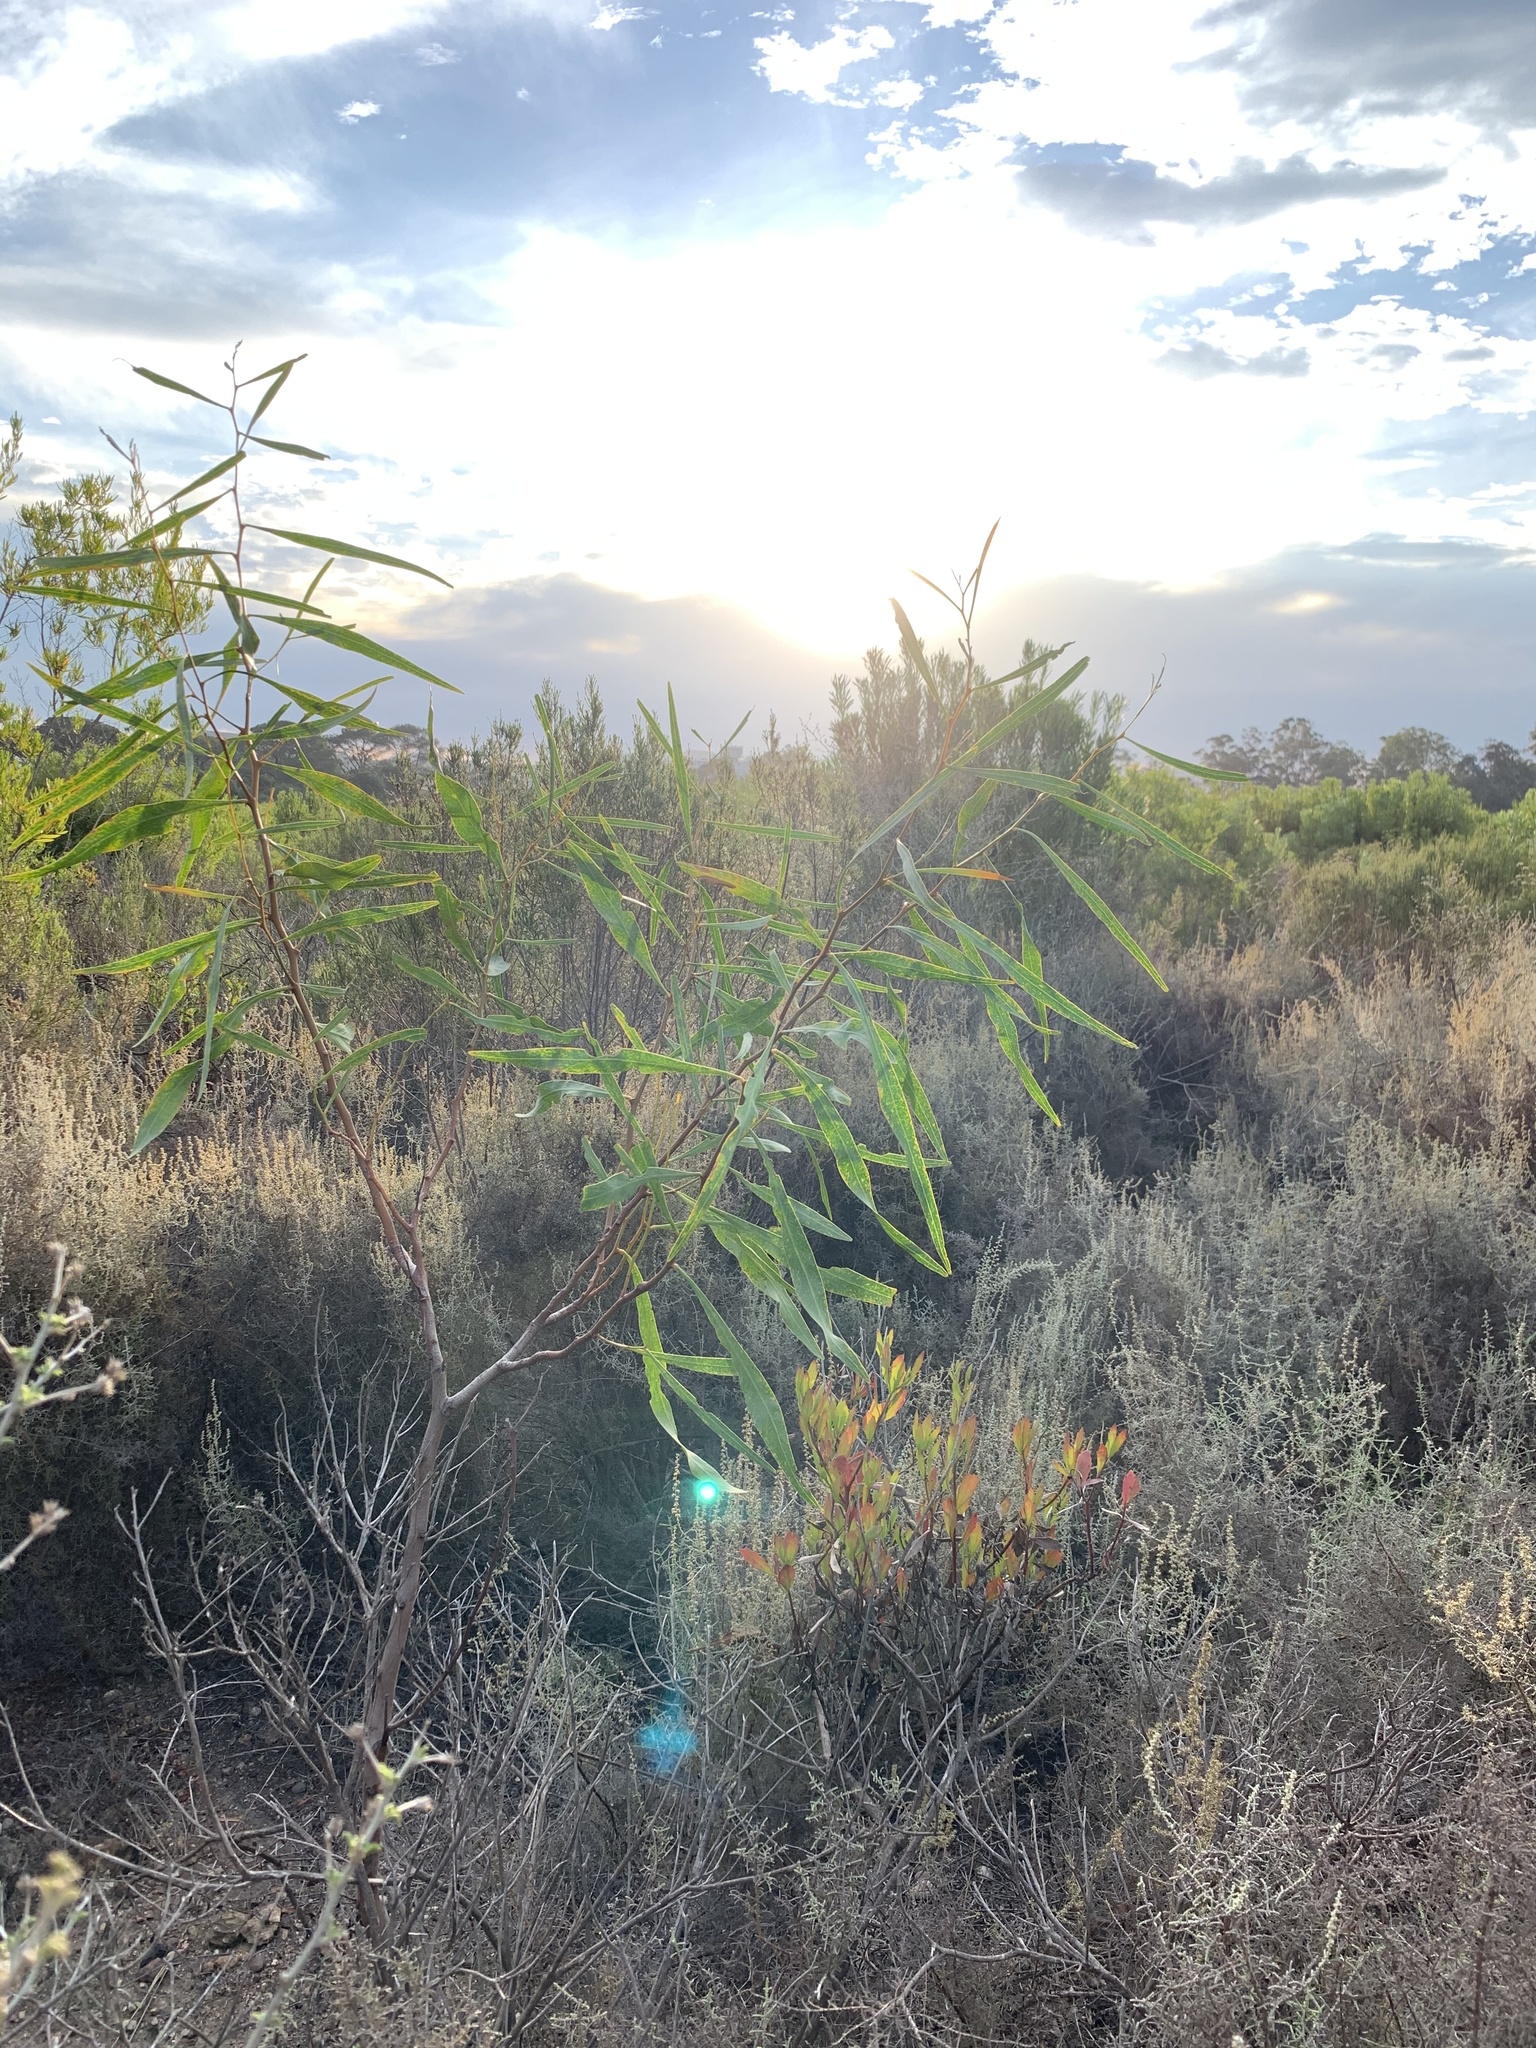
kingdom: Plantae
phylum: Tracheophyta
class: Magnoliopsida
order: Fabales
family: Fabaceae
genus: Acacia
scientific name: Acacia saligna
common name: Orange wattle
